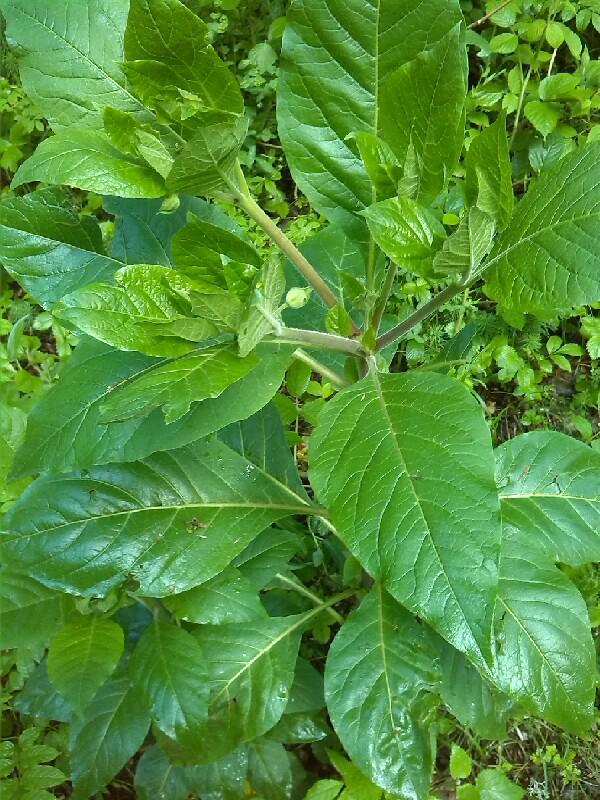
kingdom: Plantae
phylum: Tracheophyta
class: Magnoliopsida
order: Solanales
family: Solanaceae
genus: Atropa
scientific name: Atropa belladonna
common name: Deadly nightshade
